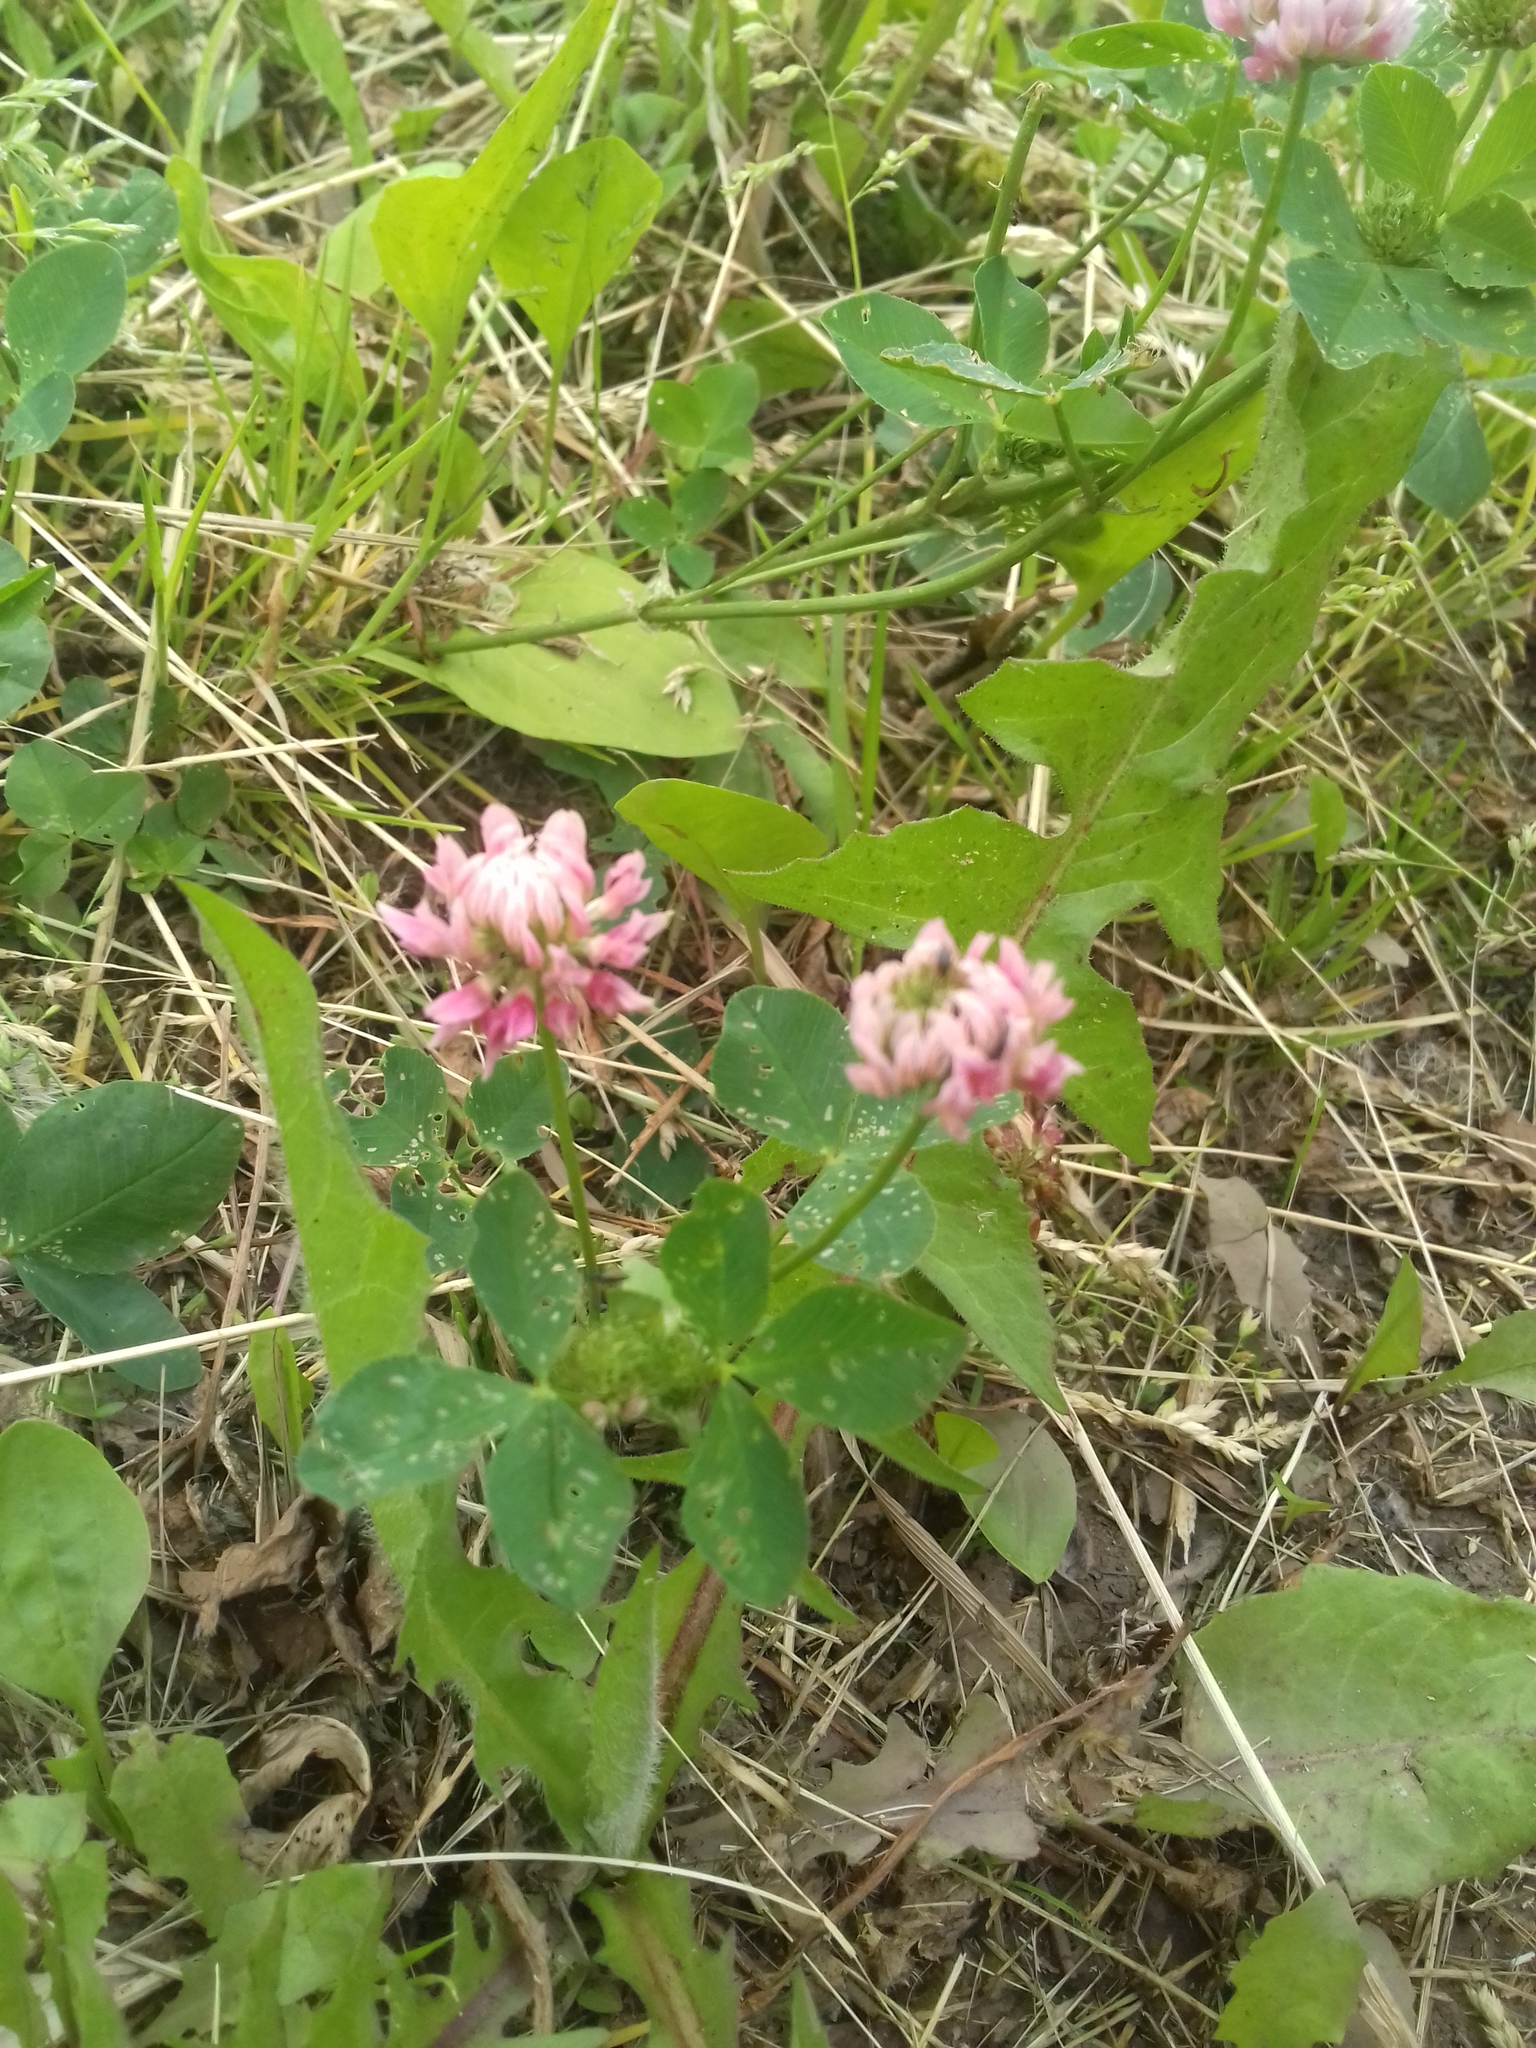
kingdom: Plantae
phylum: Tracheophyta
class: Magnoliopsida
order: Fabales
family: Fabaceae
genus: Trifolium
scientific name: Trifolium hybridum
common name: Alsike clover
